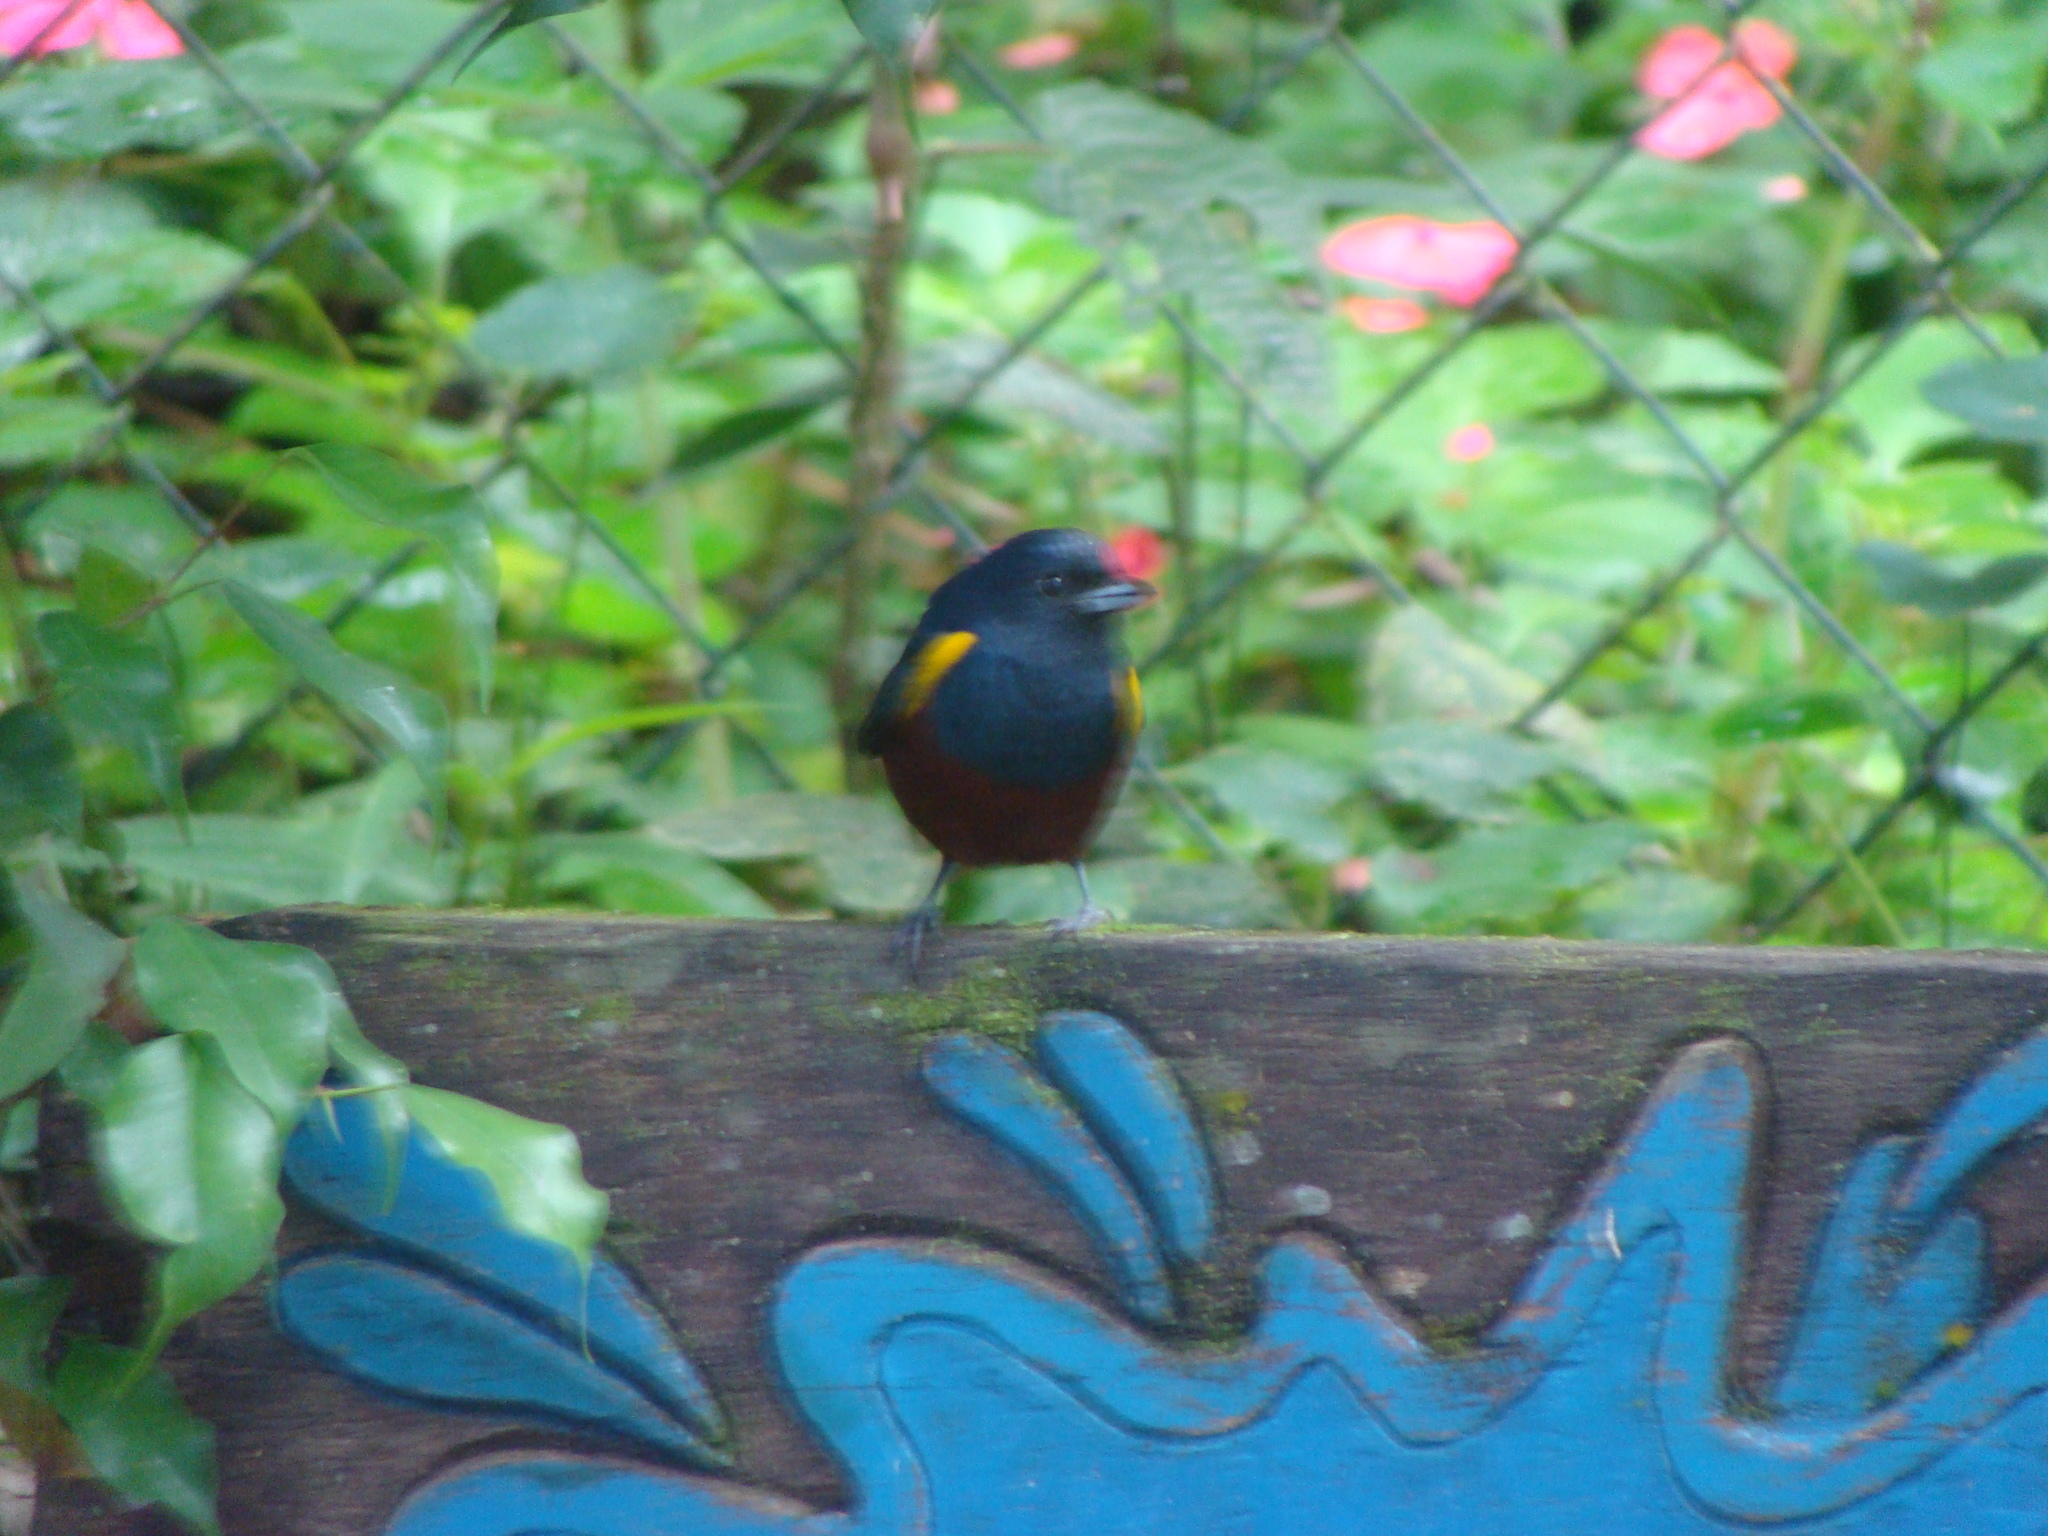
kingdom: Animalia
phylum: Chordata
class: Aves
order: Passeriformes
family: Fringillidae
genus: Euphonia
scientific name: Euphonia pectoralis
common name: Chestnut-bellied euphonia
